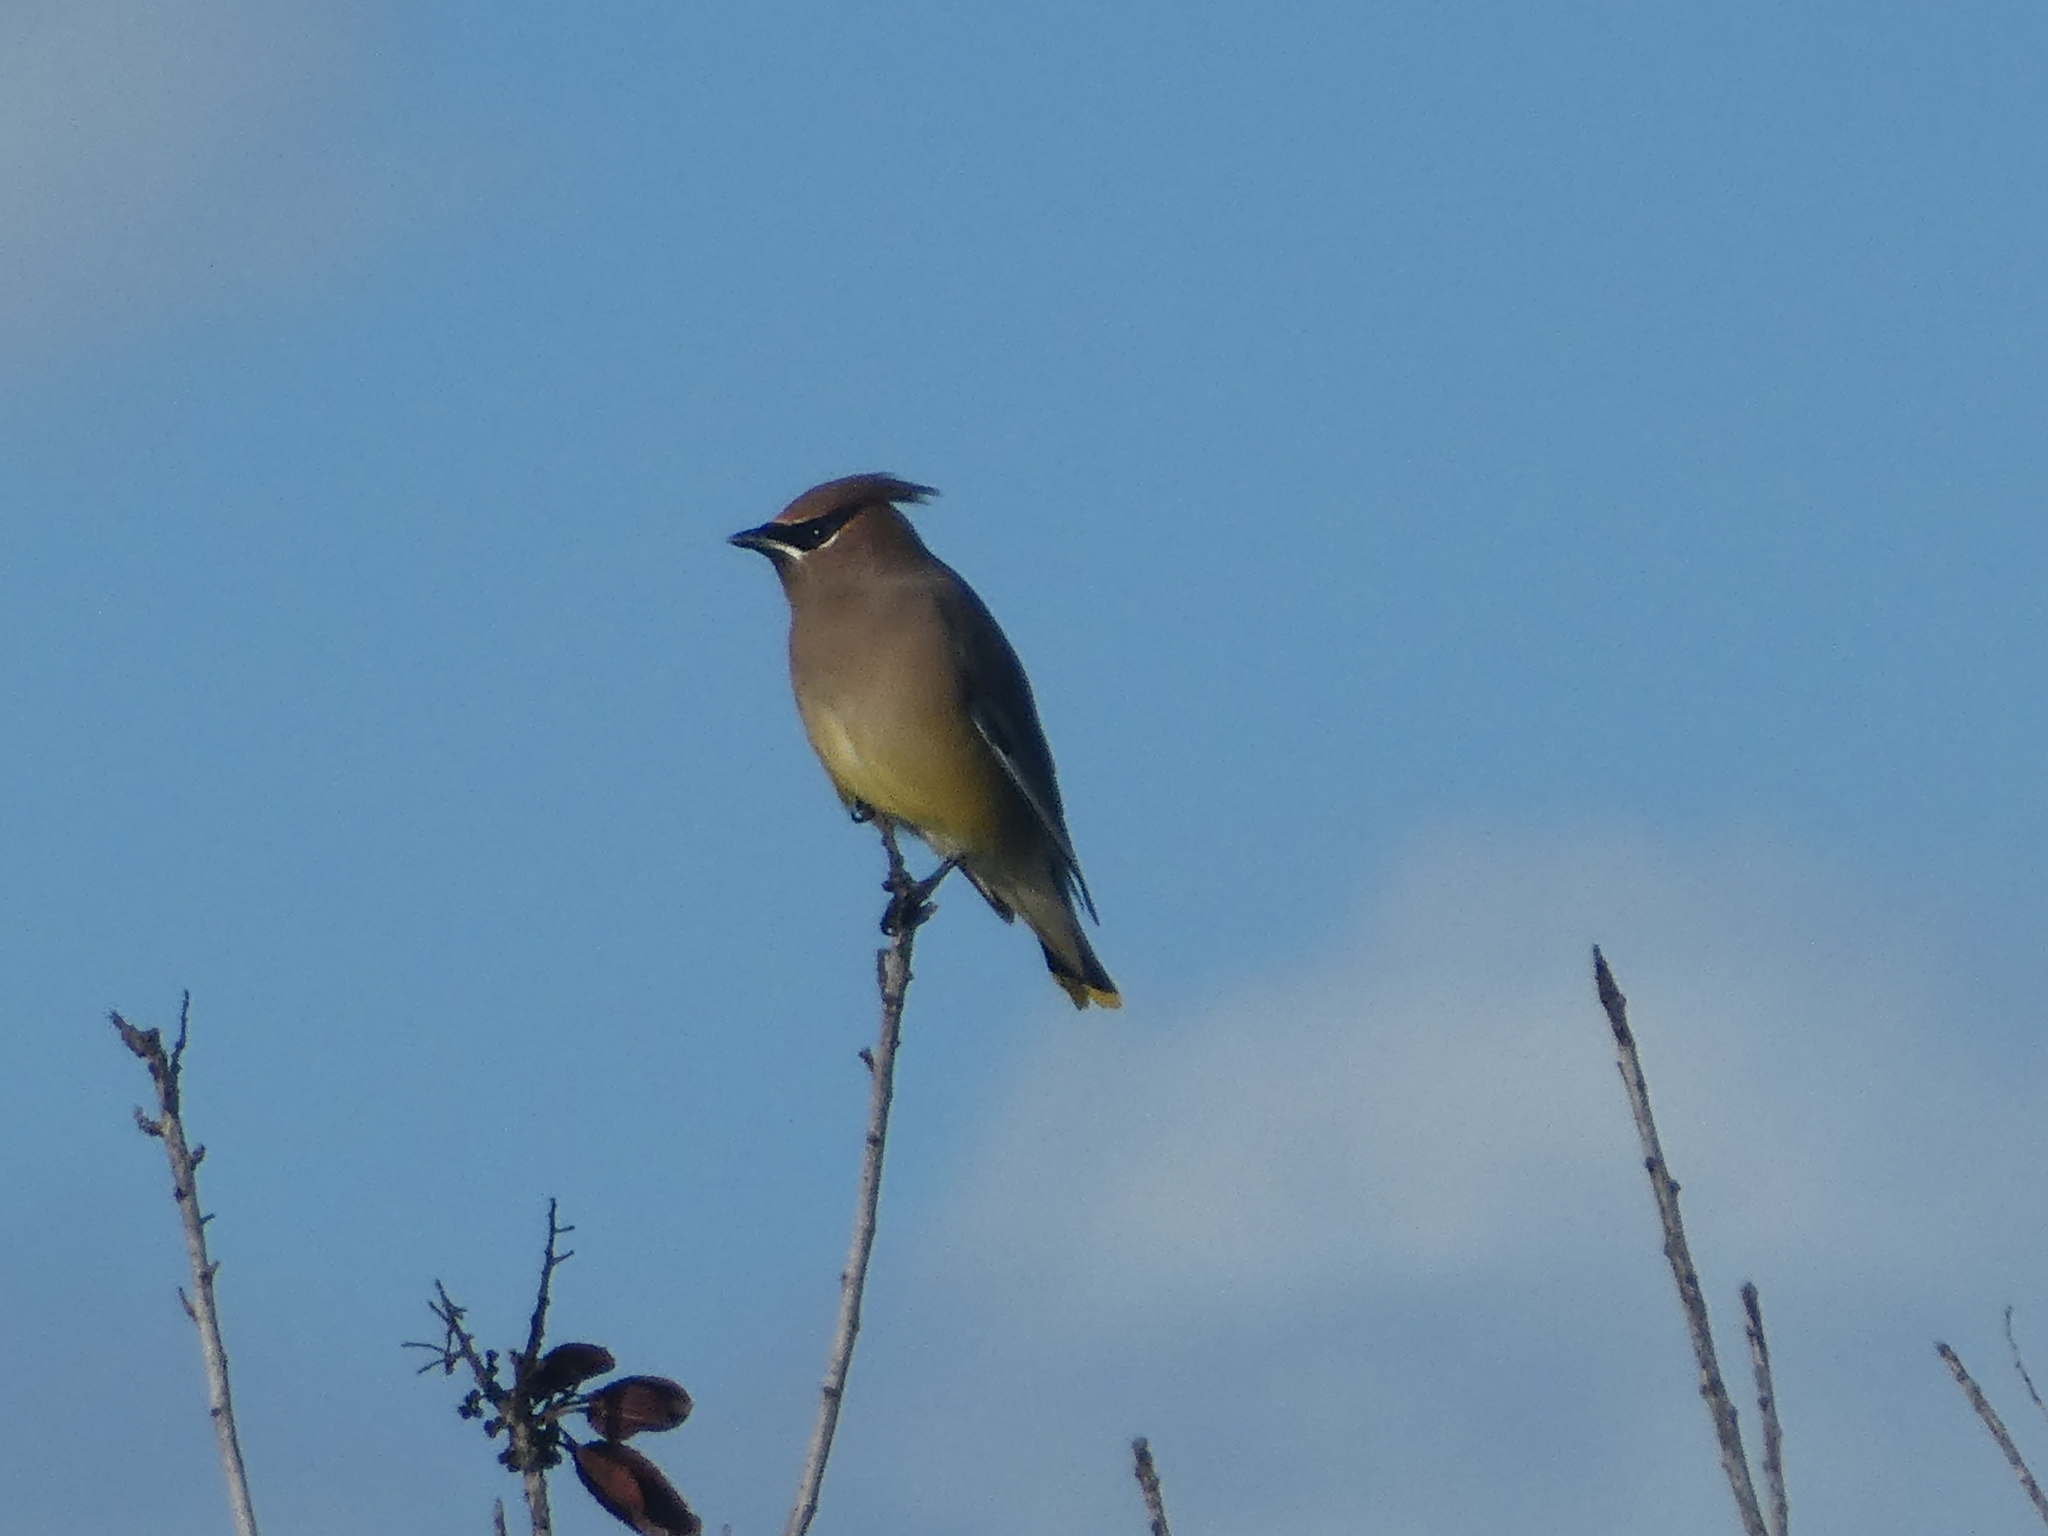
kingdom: Animalia
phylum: Chordata
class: Aves
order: Passeriformes
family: Bombycillidae
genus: Bombycilla
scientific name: Bombycilla cedrorum
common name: Cedar waxwing
